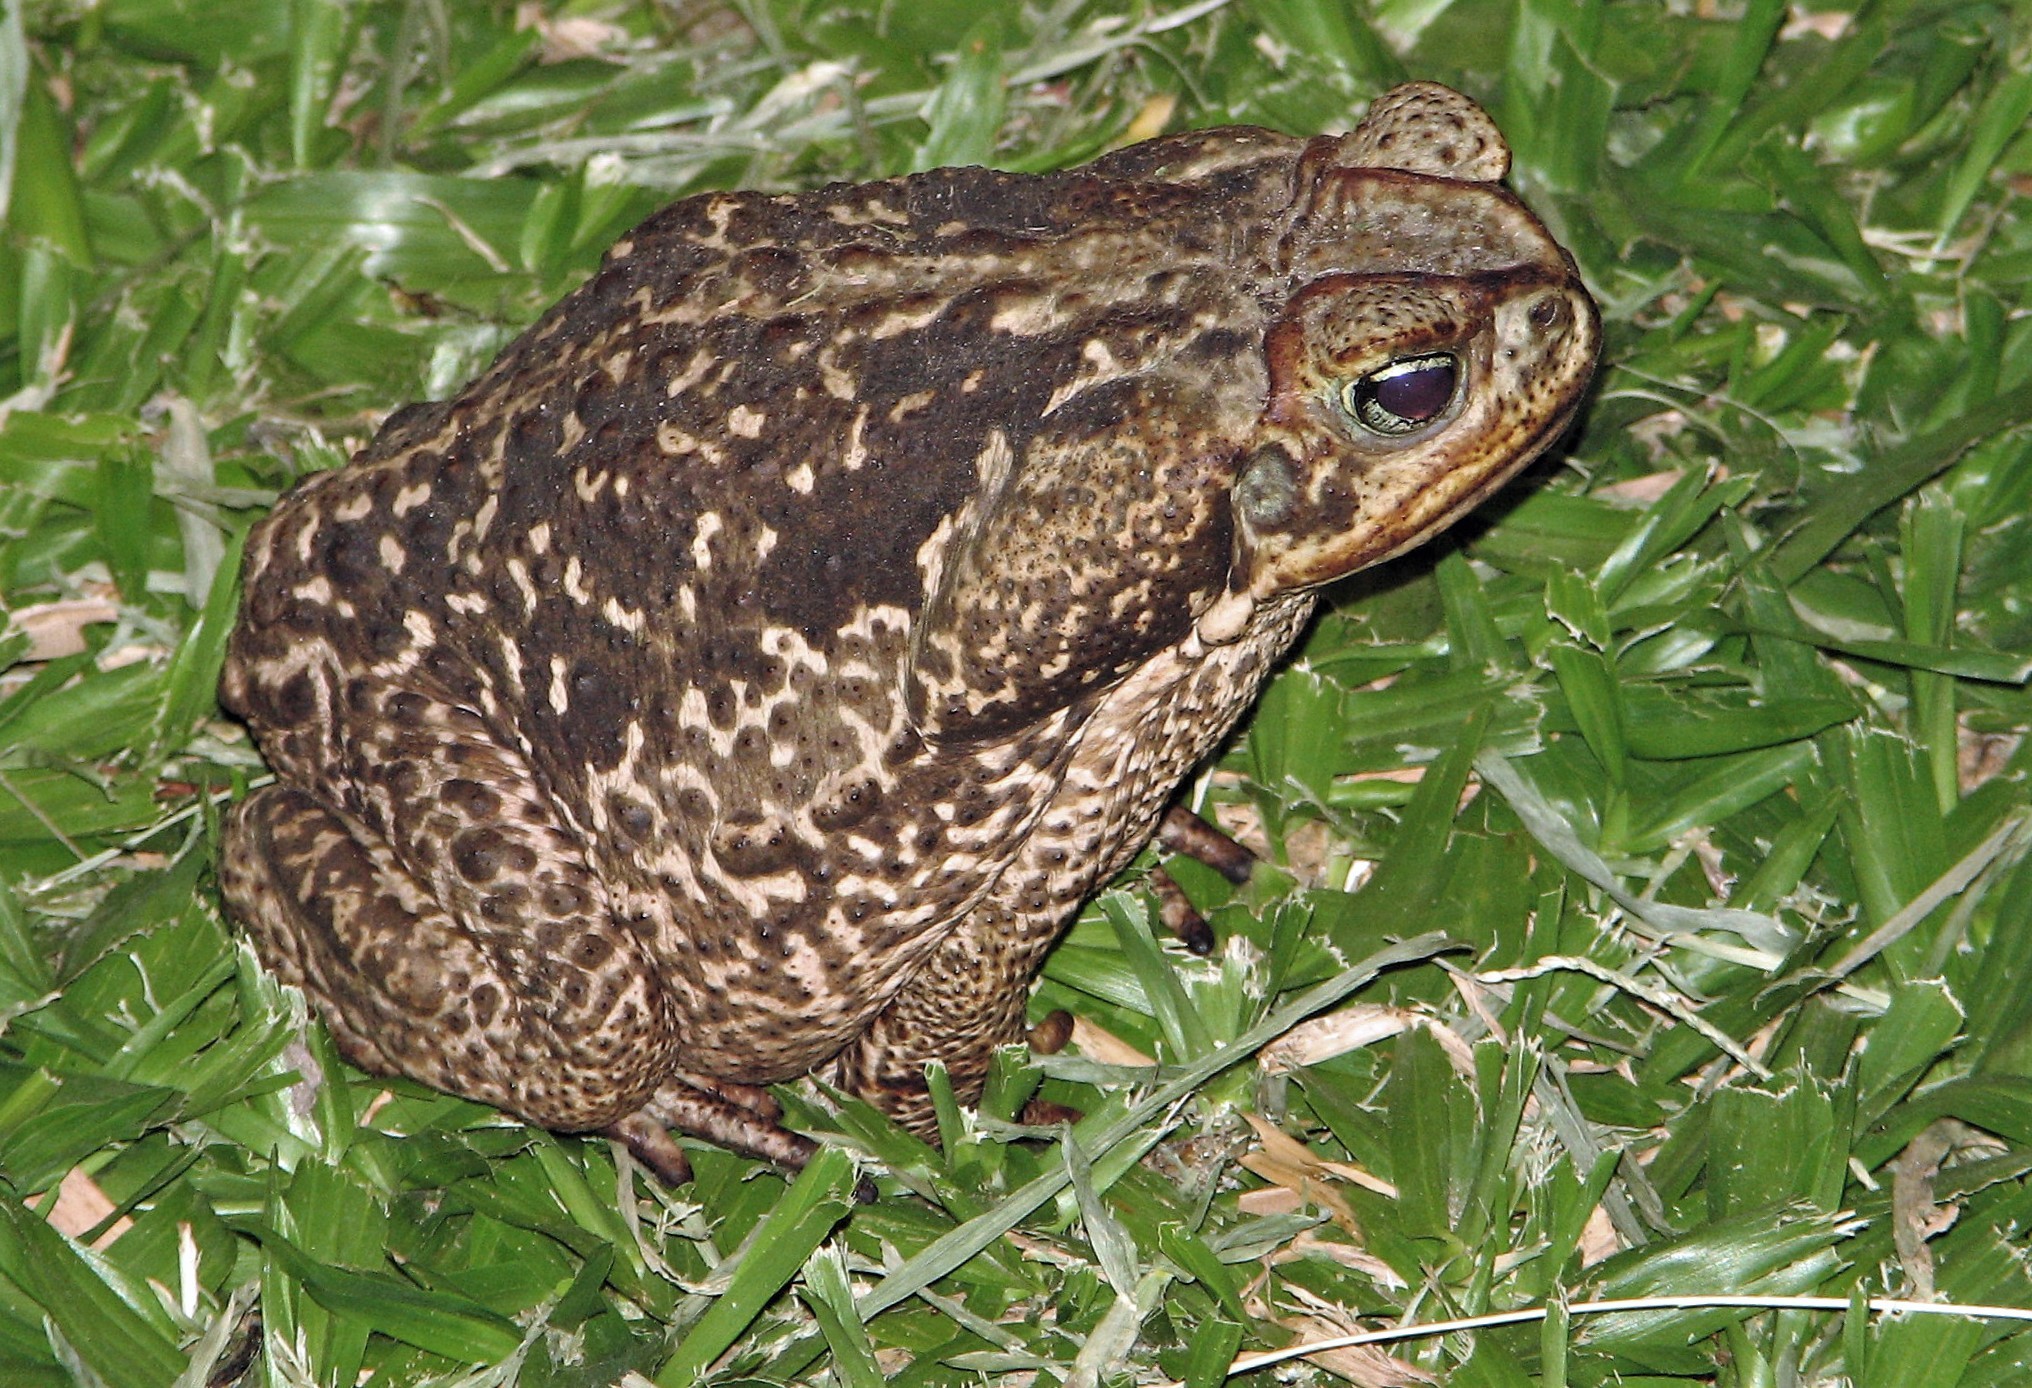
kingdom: Animalia
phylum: Chordata
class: Amphibia
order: Anura
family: Bufonidae
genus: Rhinella
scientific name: Rhinella diptycha
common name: Cope's toad
